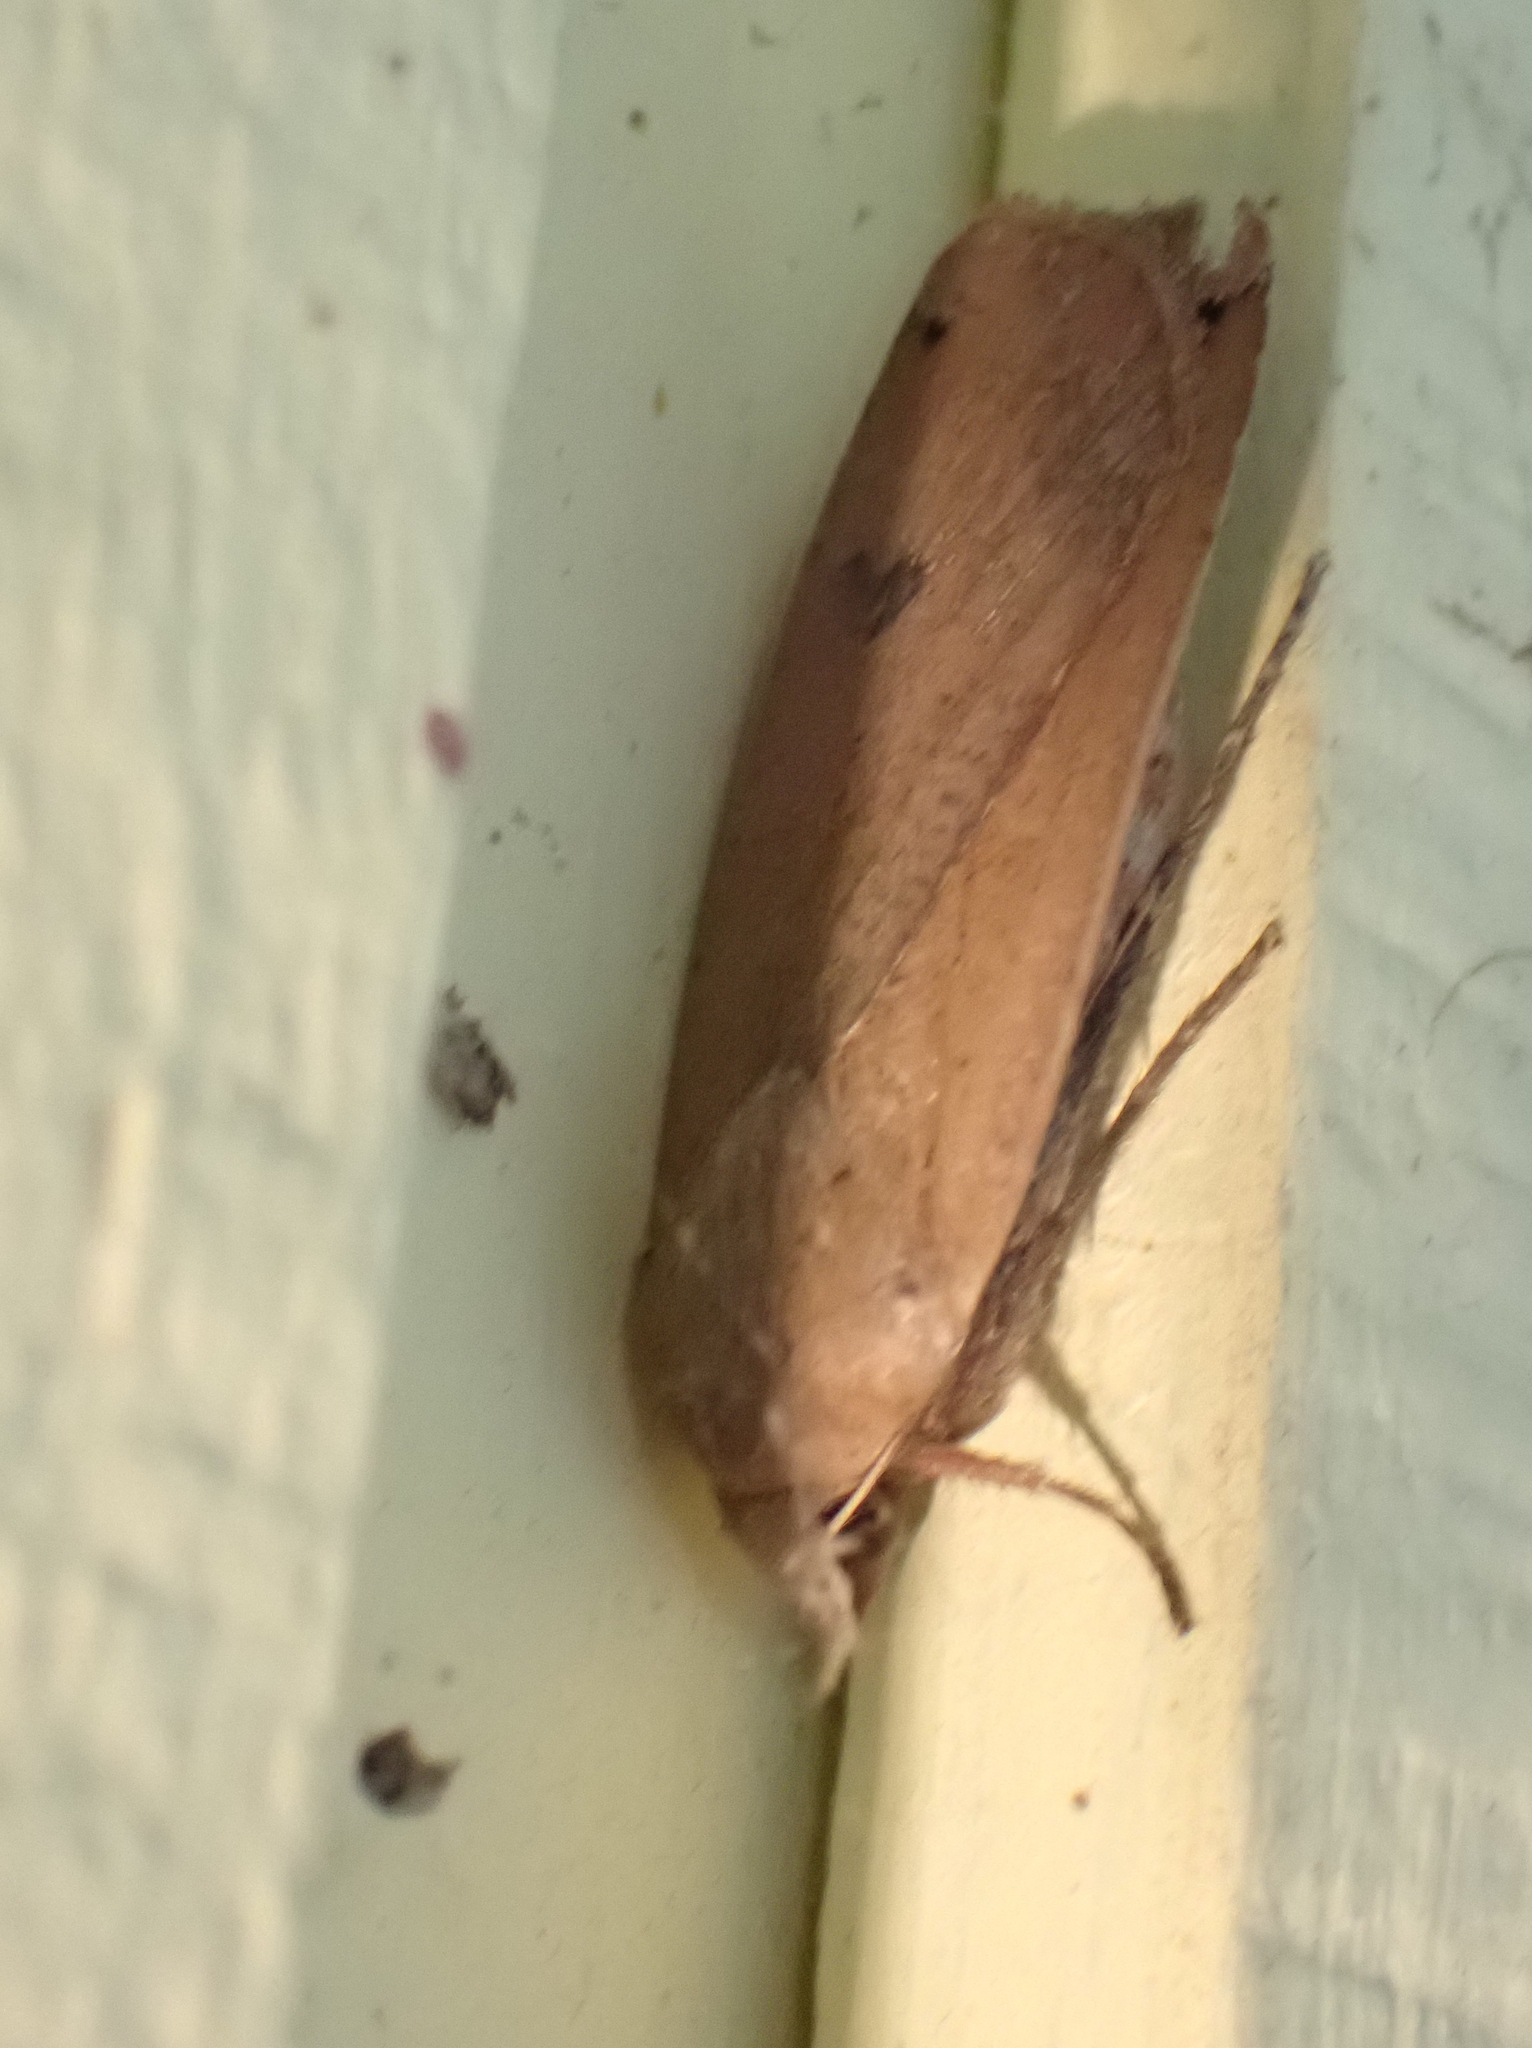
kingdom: Animalia
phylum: Arthropoda
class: Insecta
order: Lepidoptera
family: Noctuidae
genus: Noctua
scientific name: Noctua pronuba
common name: Large yellow underwing
